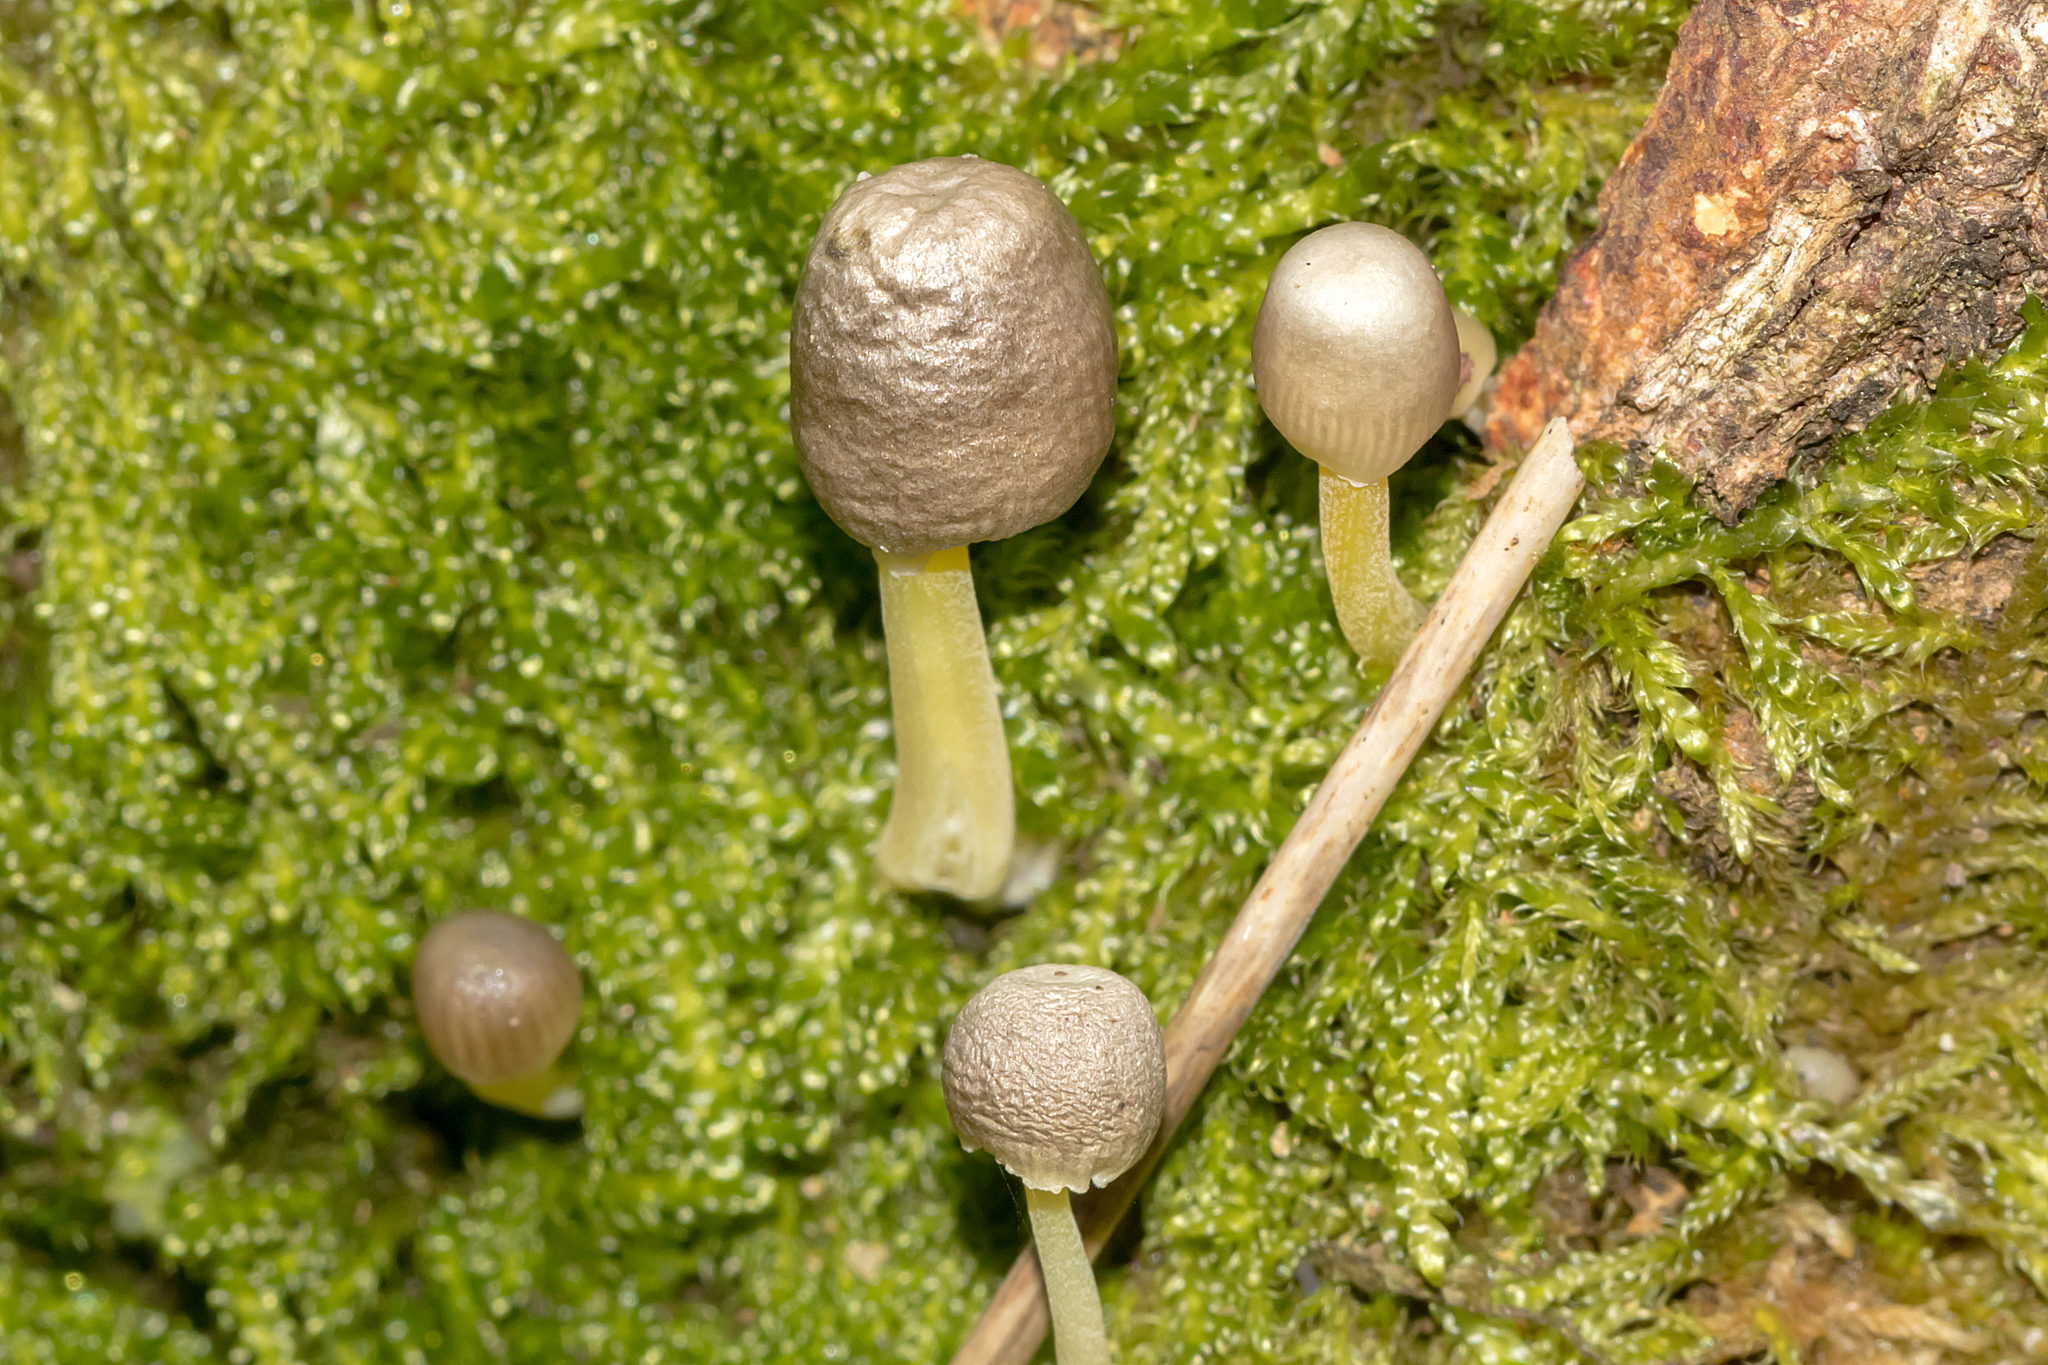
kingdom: Fungi
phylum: Basidiomycota
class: Agaricomycetes
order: Agaricales
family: Mycenaceae
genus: Mycena
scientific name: Mycena epipterygia
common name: Yellowleg bonnet
